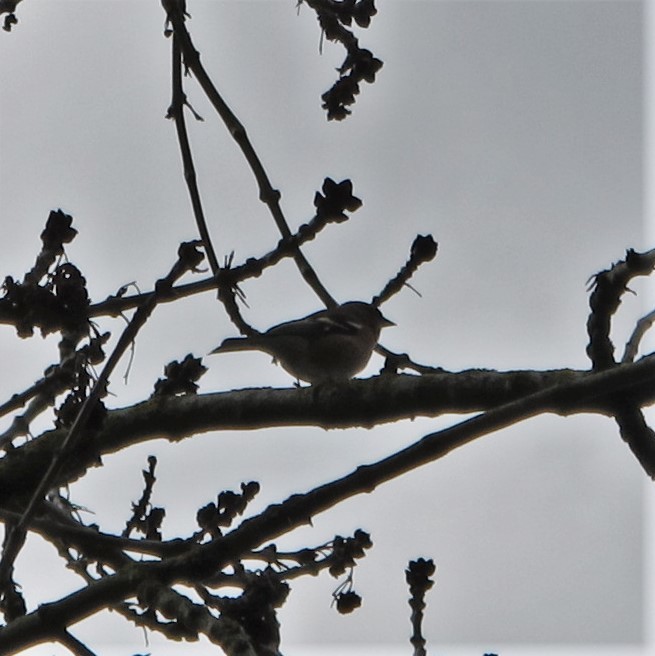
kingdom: Animalia
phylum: Chordata
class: Aves
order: Passeriformes
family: Fringillidae
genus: Fringilla
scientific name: Fringilla coelebs
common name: Common chaffinch
